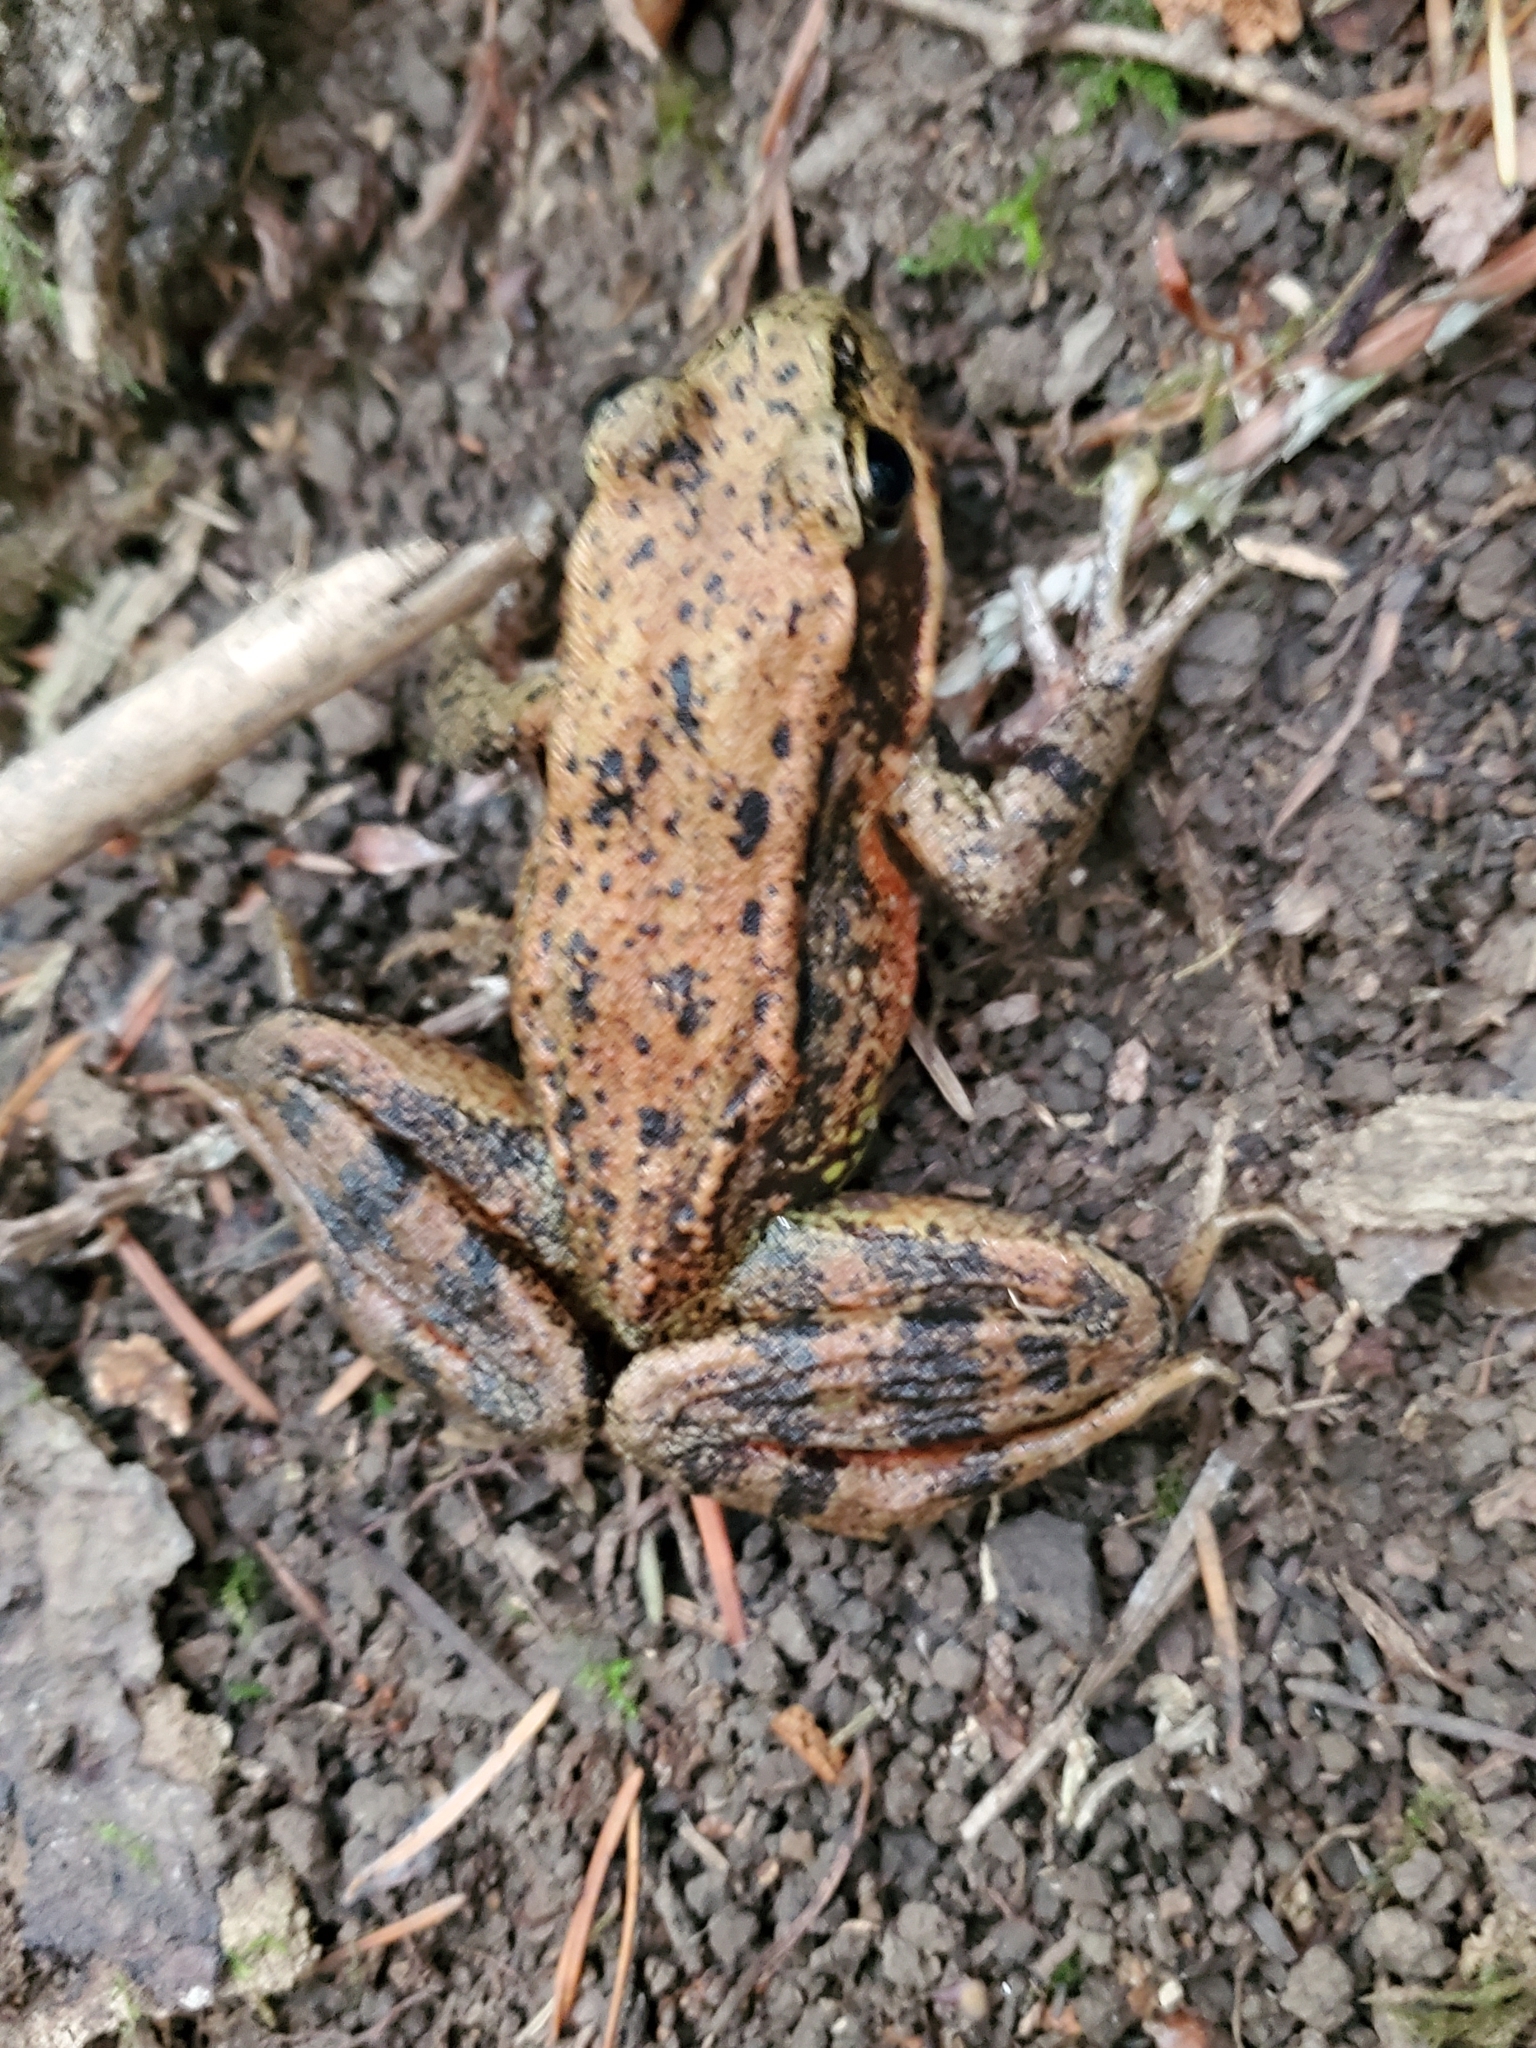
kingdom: Animalia
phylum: Chordata
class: Amphibia
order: Anura
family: Ranidae
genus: Rana
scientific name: Rana aurora
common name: Red-legged frog
